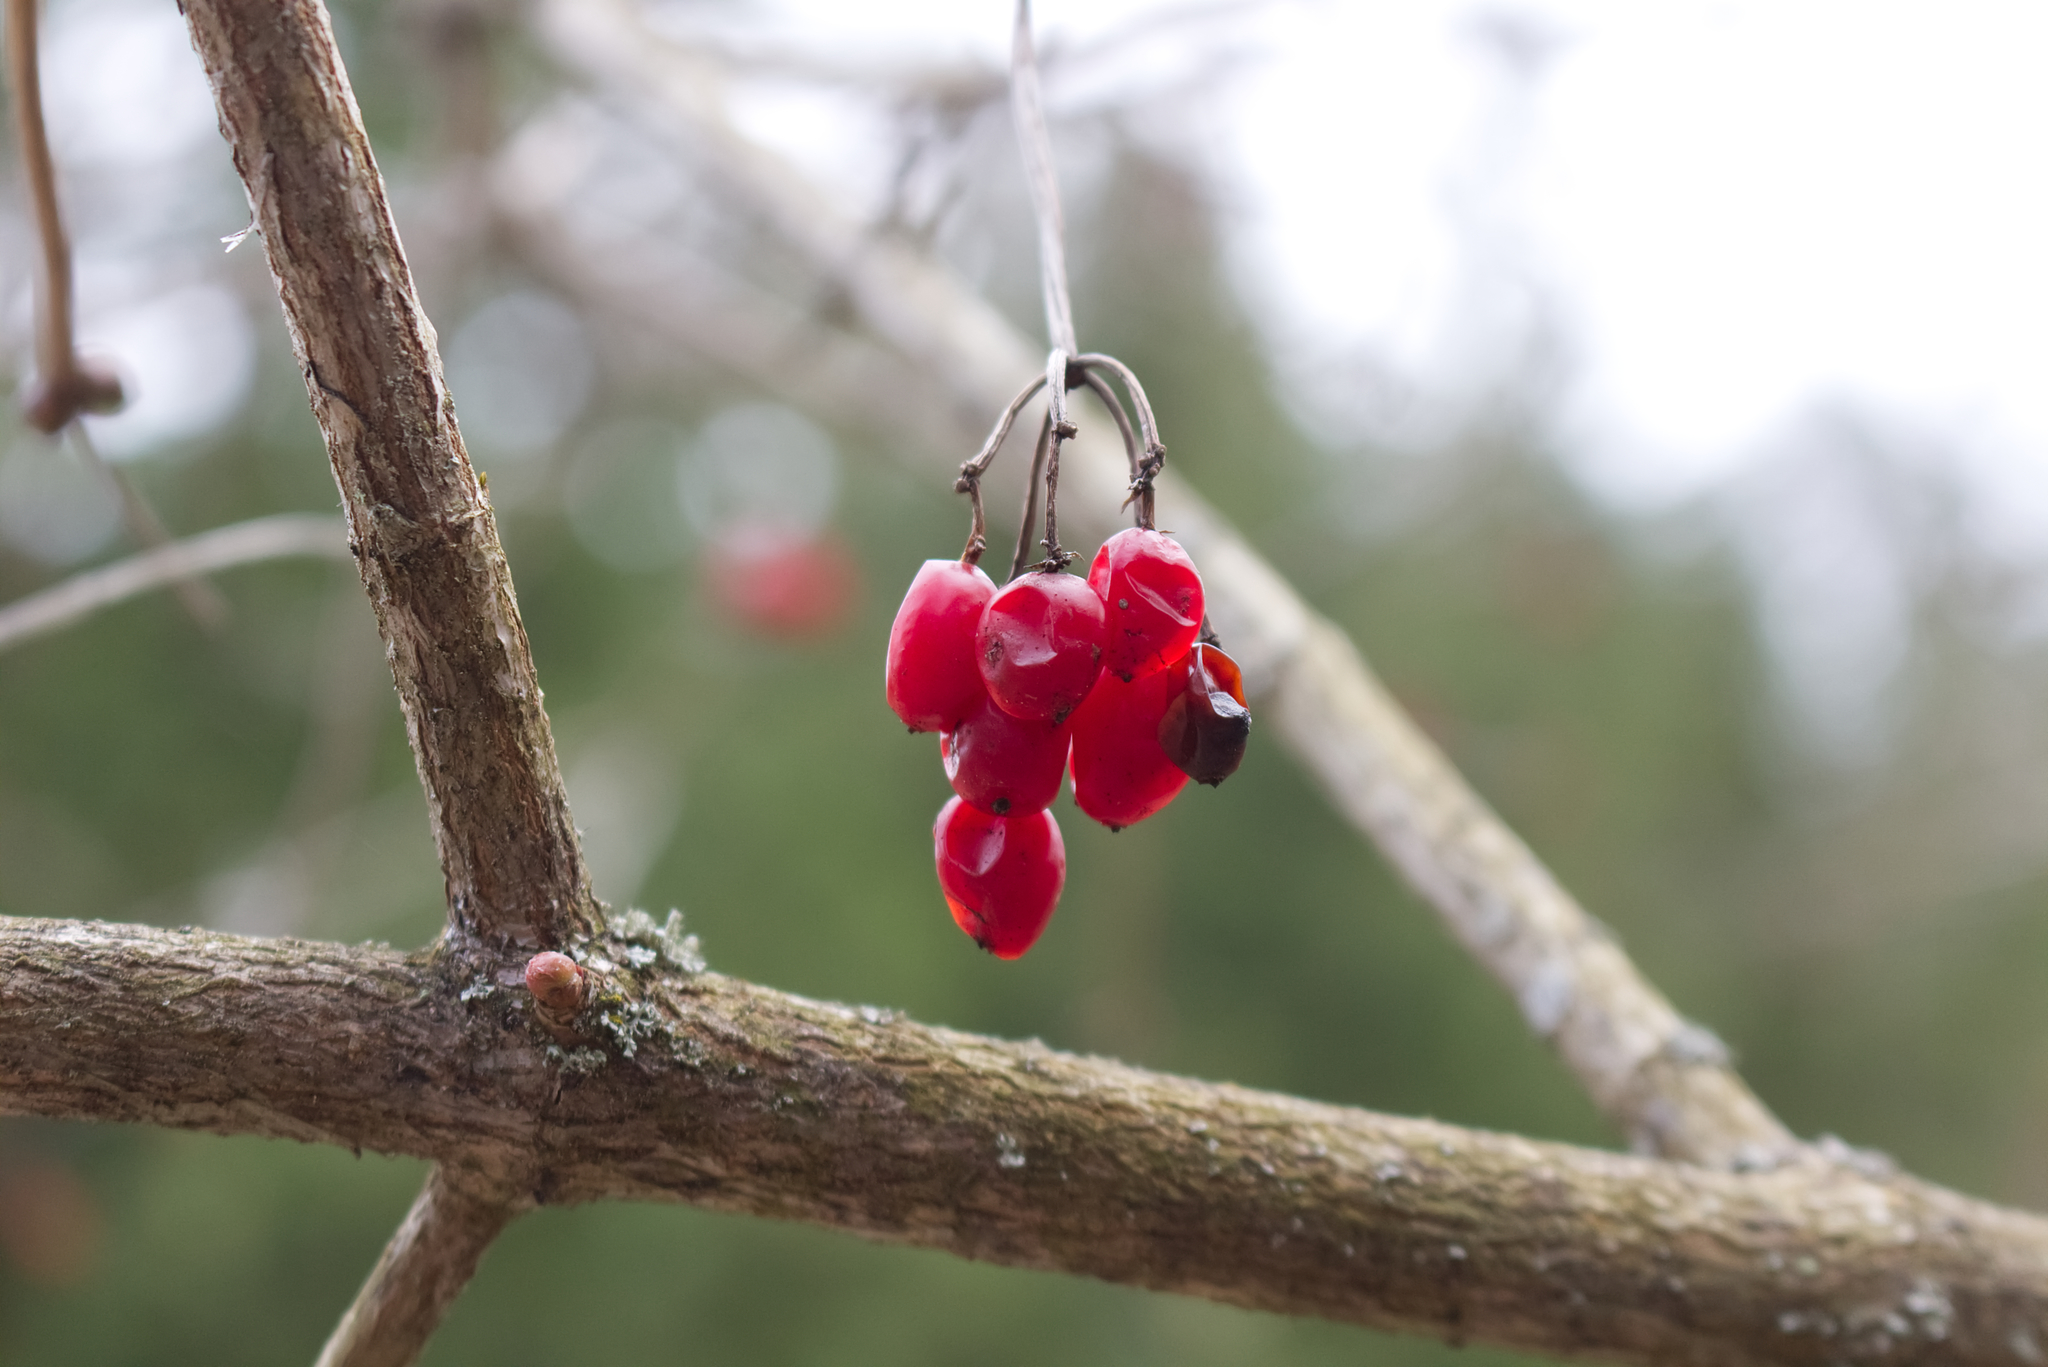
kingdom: Plantae
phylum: Tracheophyta
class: Magnoliopsida
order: Dipsacales
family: Viburnaceae
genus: Viburnum
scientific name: Viburnum opulus
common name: Guelder-rose
